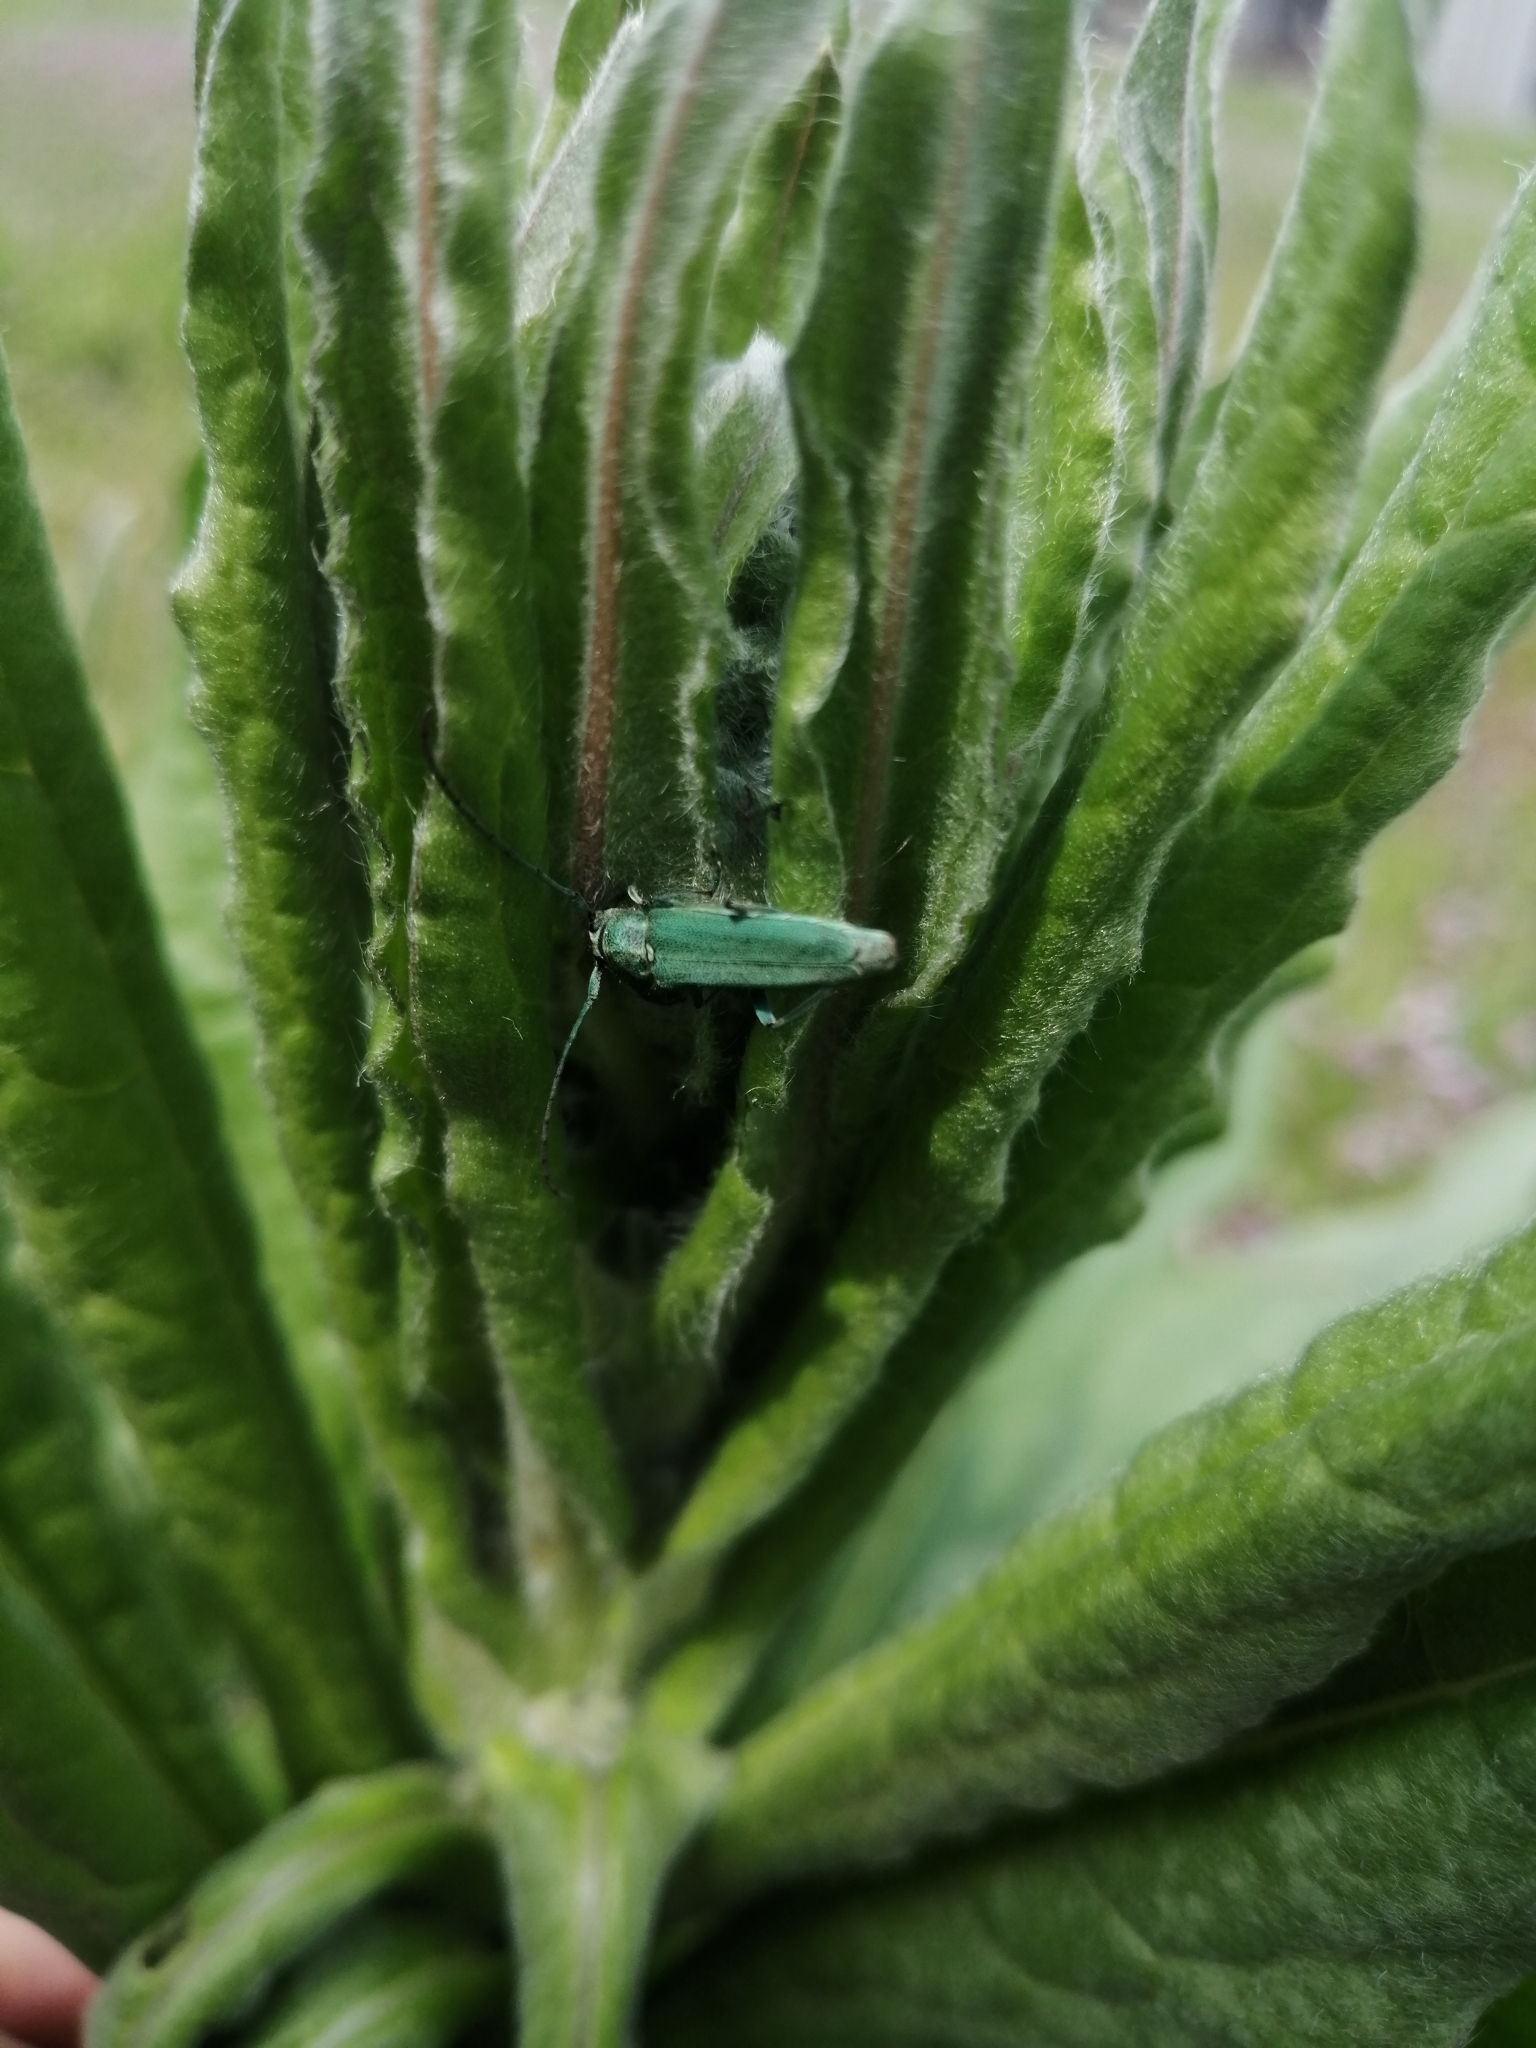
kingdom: Animalia
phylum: Arthropoda
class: Insecta
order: Coleoptera
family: Cerambycidae
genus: Phytoecia
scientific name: Phytoecia coerulescens
